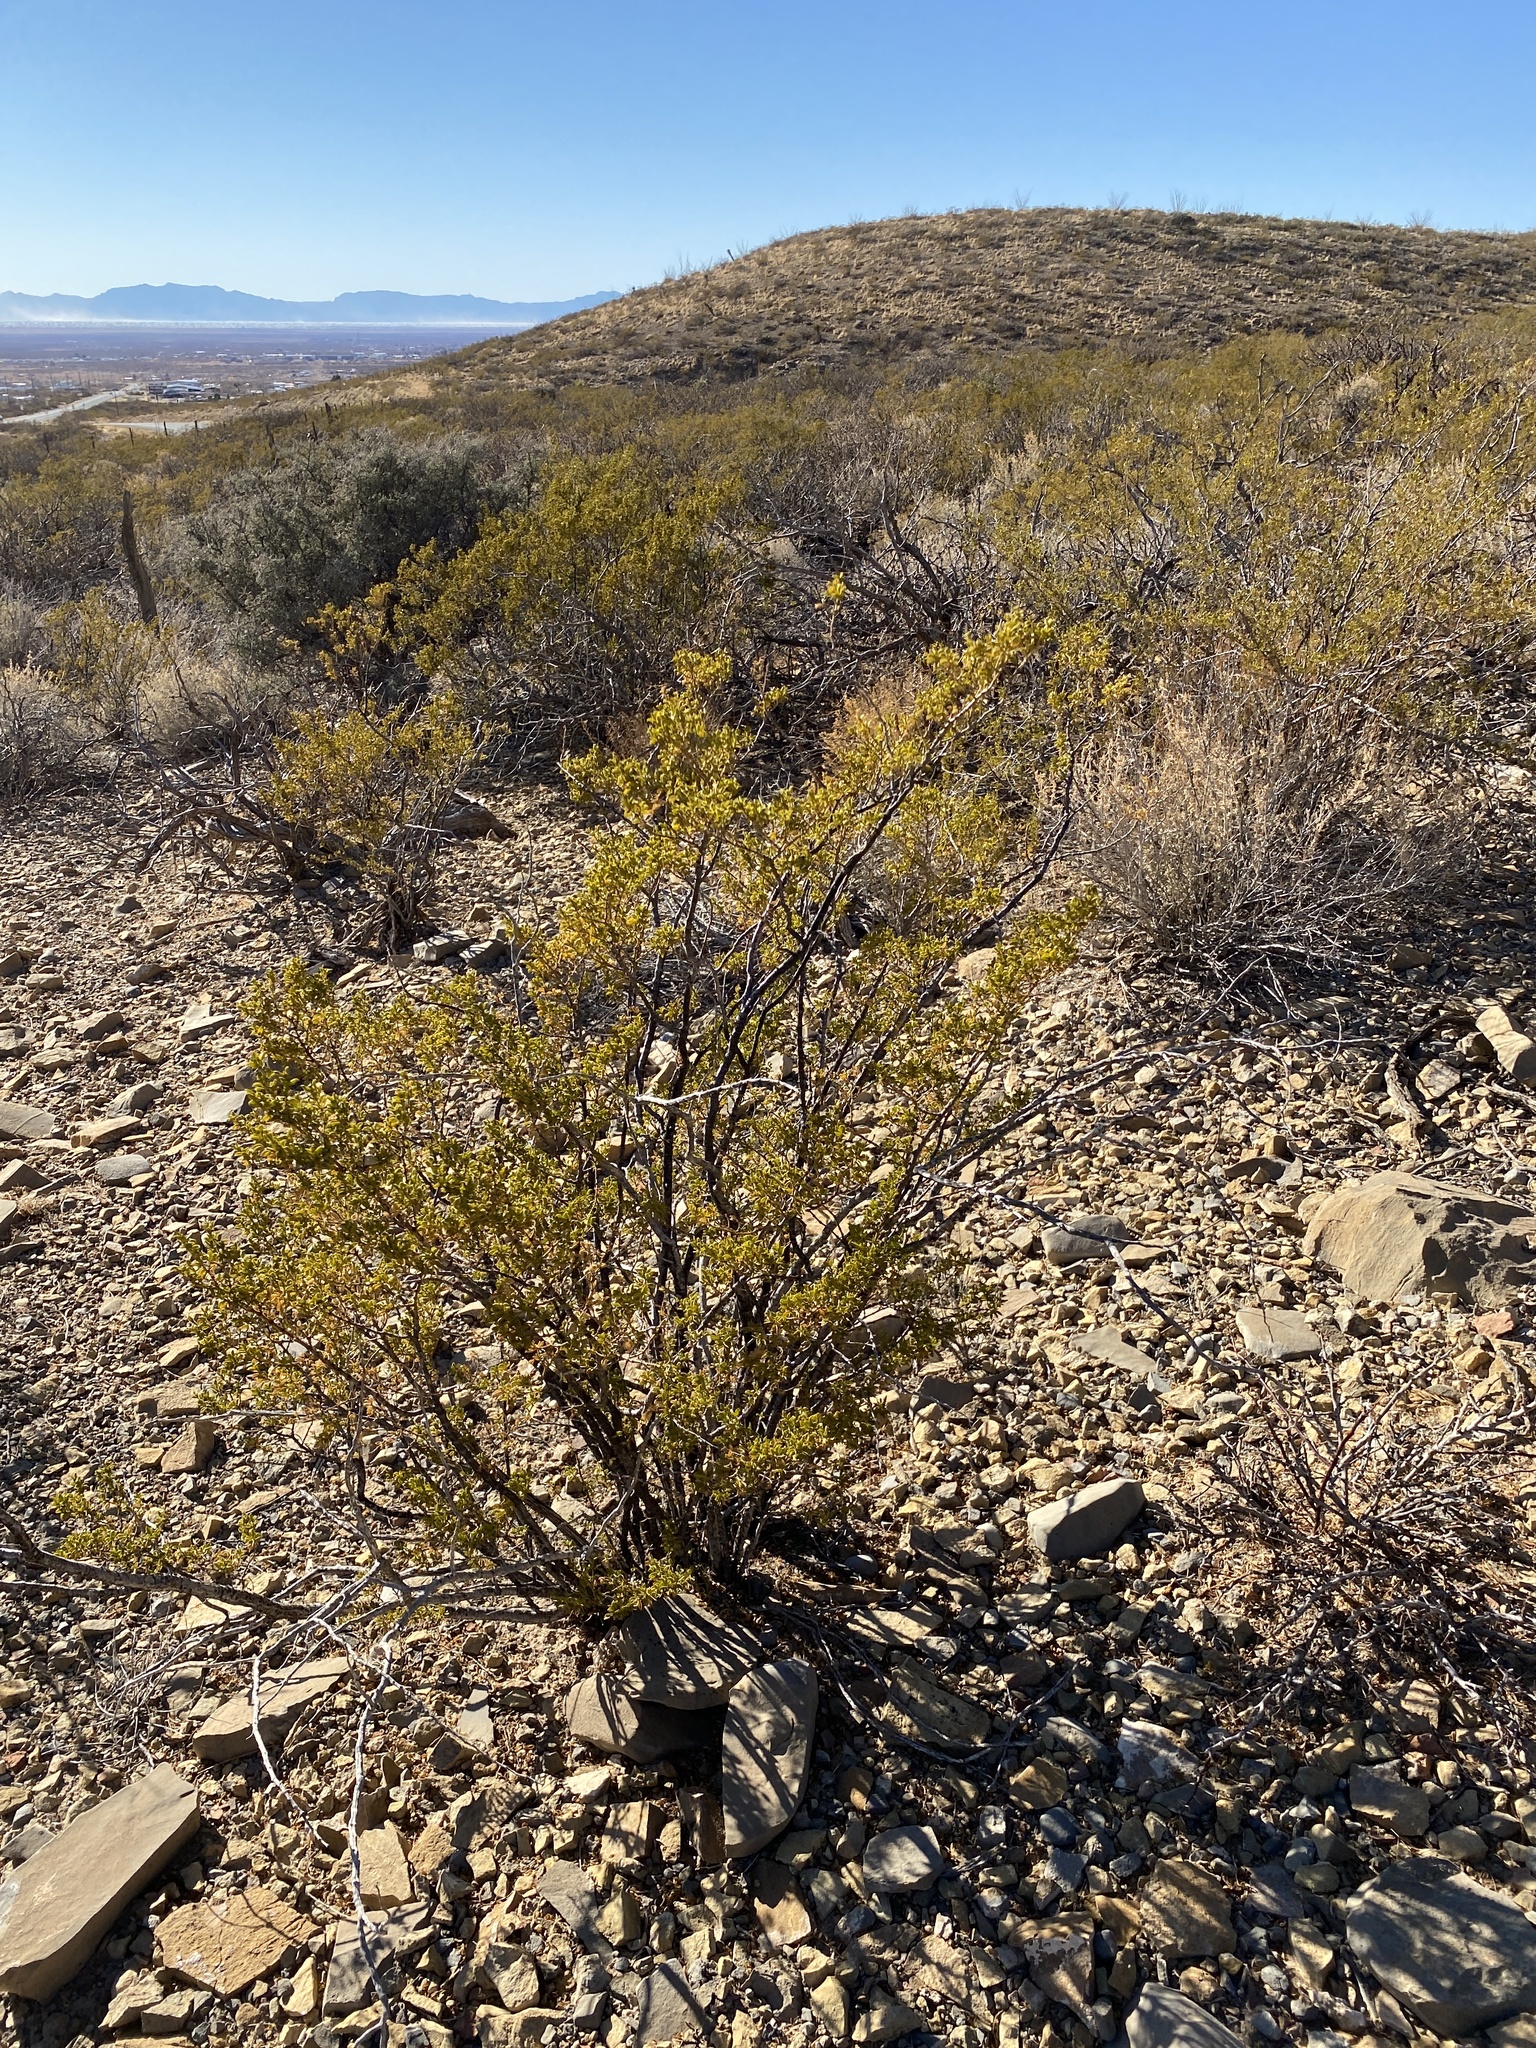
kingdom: Plantae
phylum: Tracheophyta
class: Magnoliopsida
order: Zygophyllales
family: Zygophyllaceae
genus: Larrea
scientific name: Larrea tridentata
